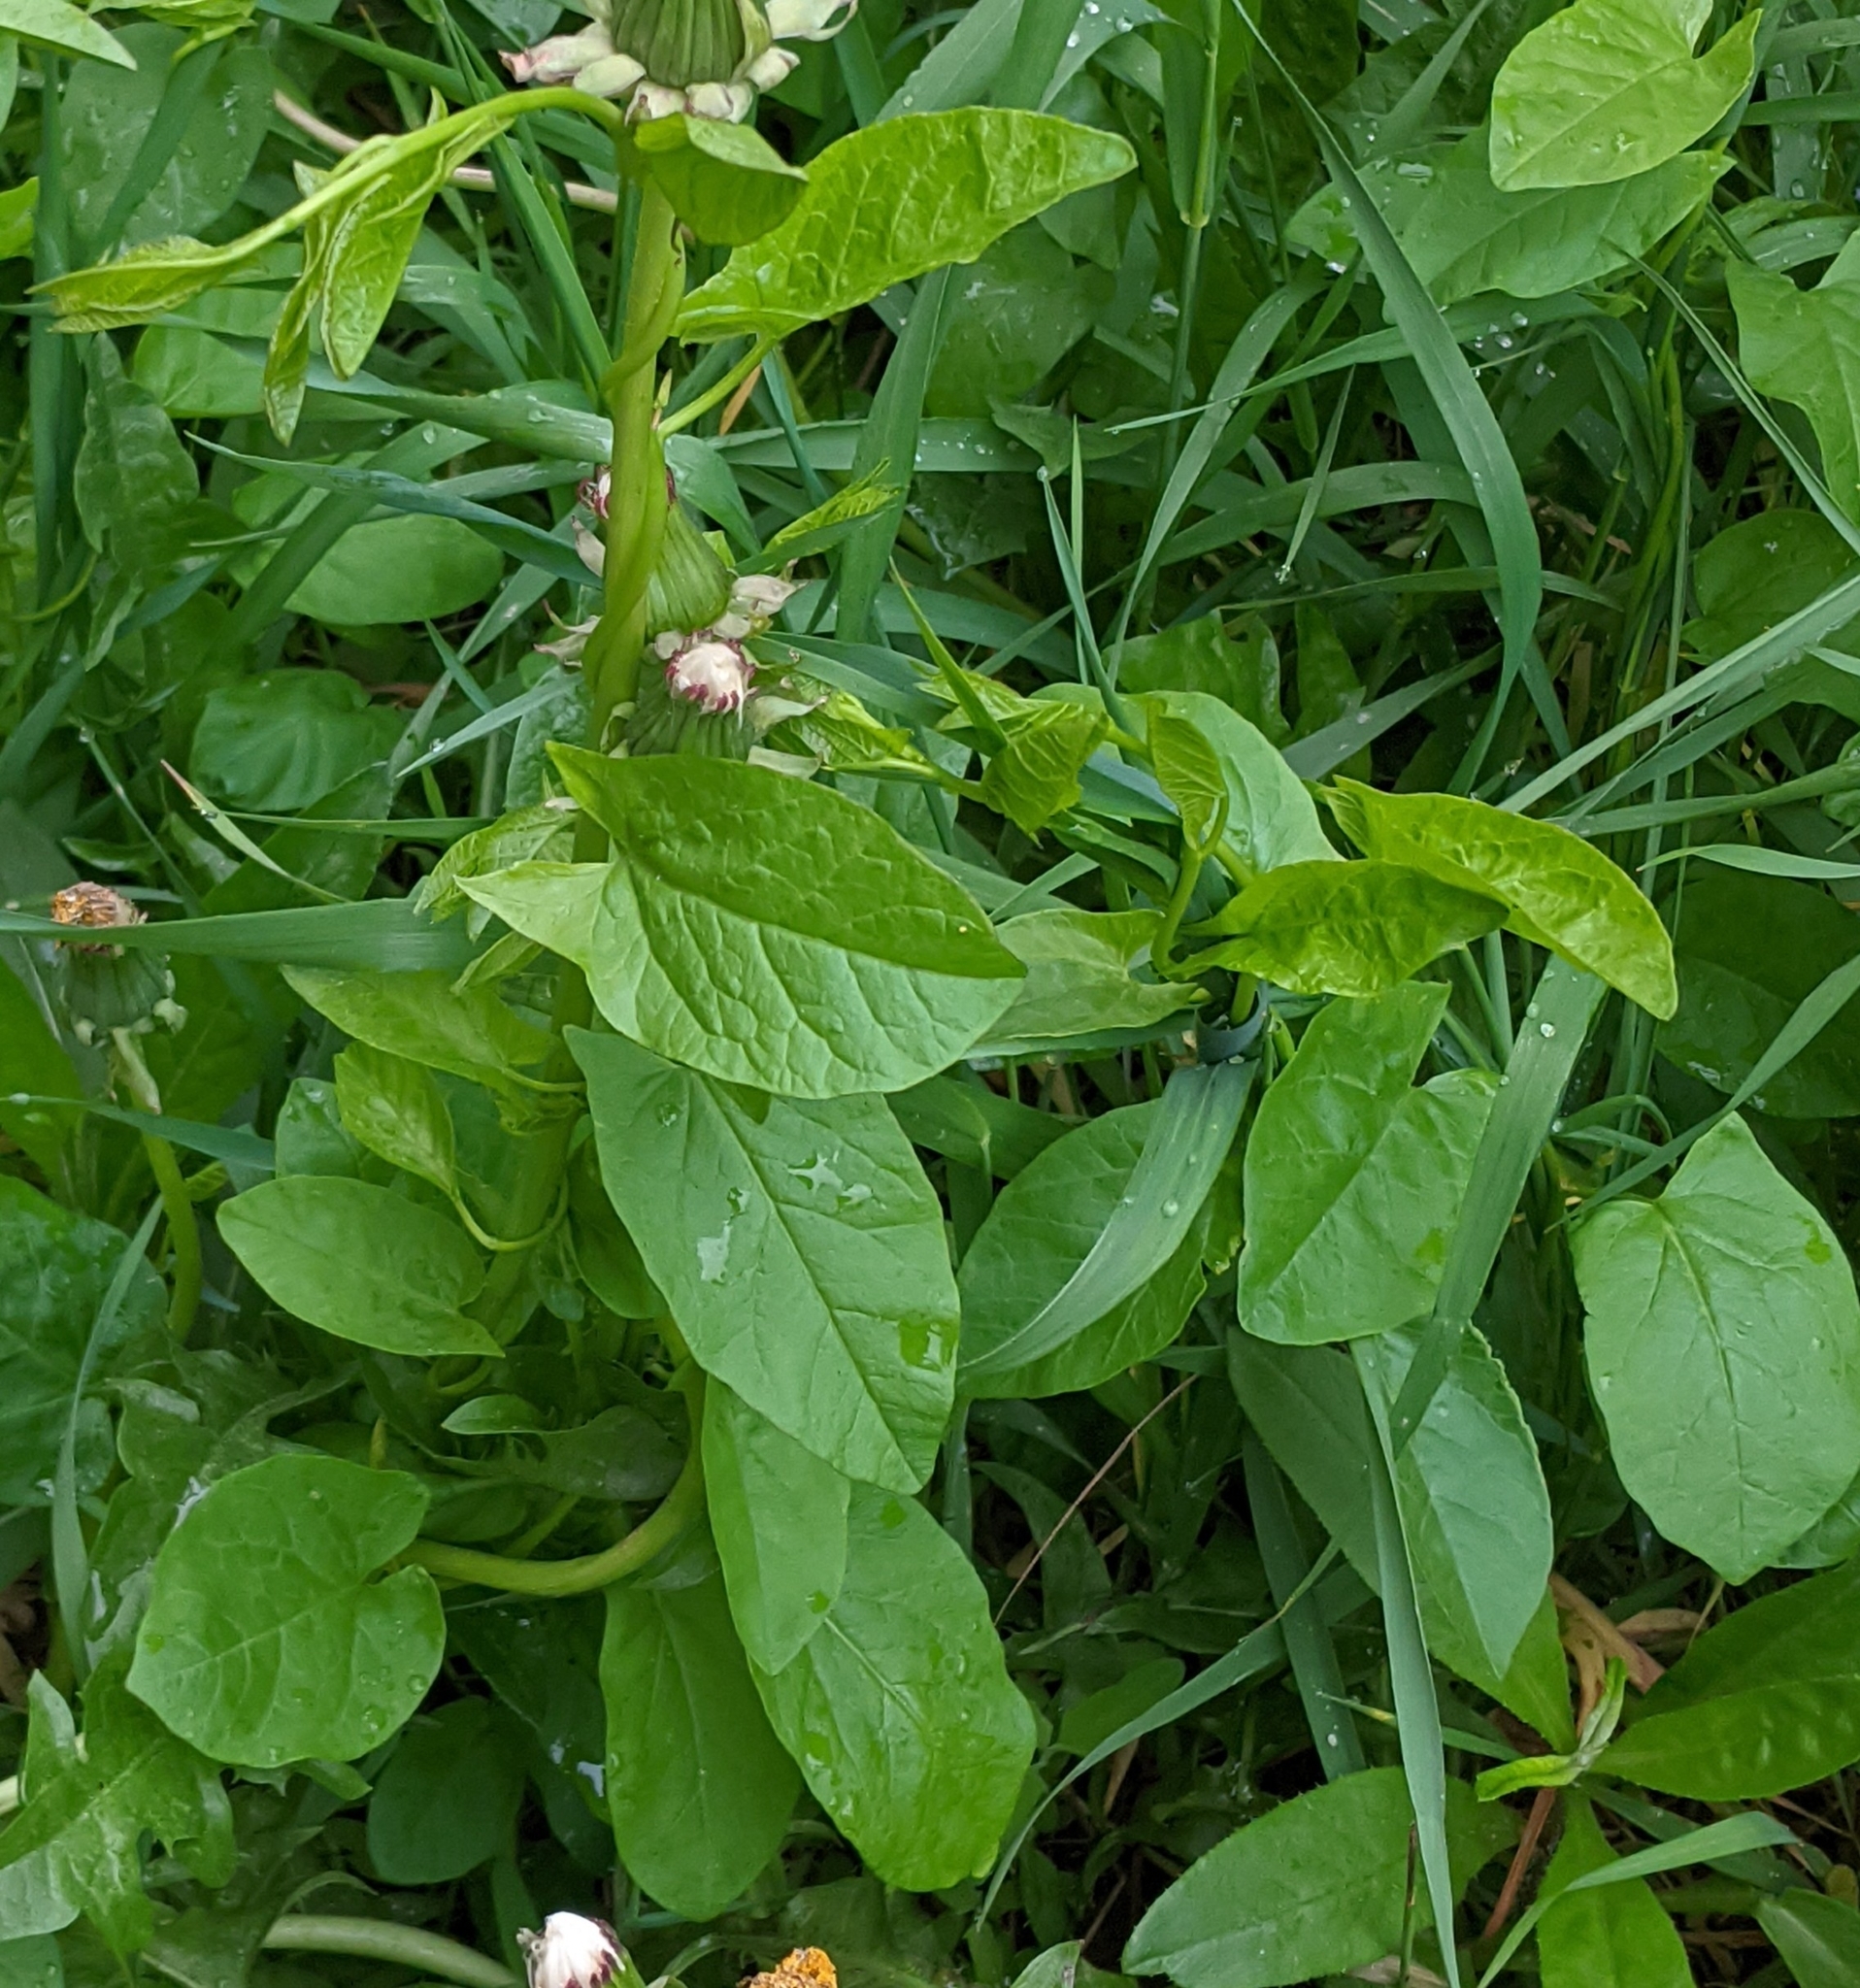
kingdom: Plantae
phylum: Tracheophyta
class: Magnoliopsida
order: Solanales
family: Convolvulaceae
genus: Convolvulus
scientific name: Convolvulus arvensis
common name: Field bindweed
